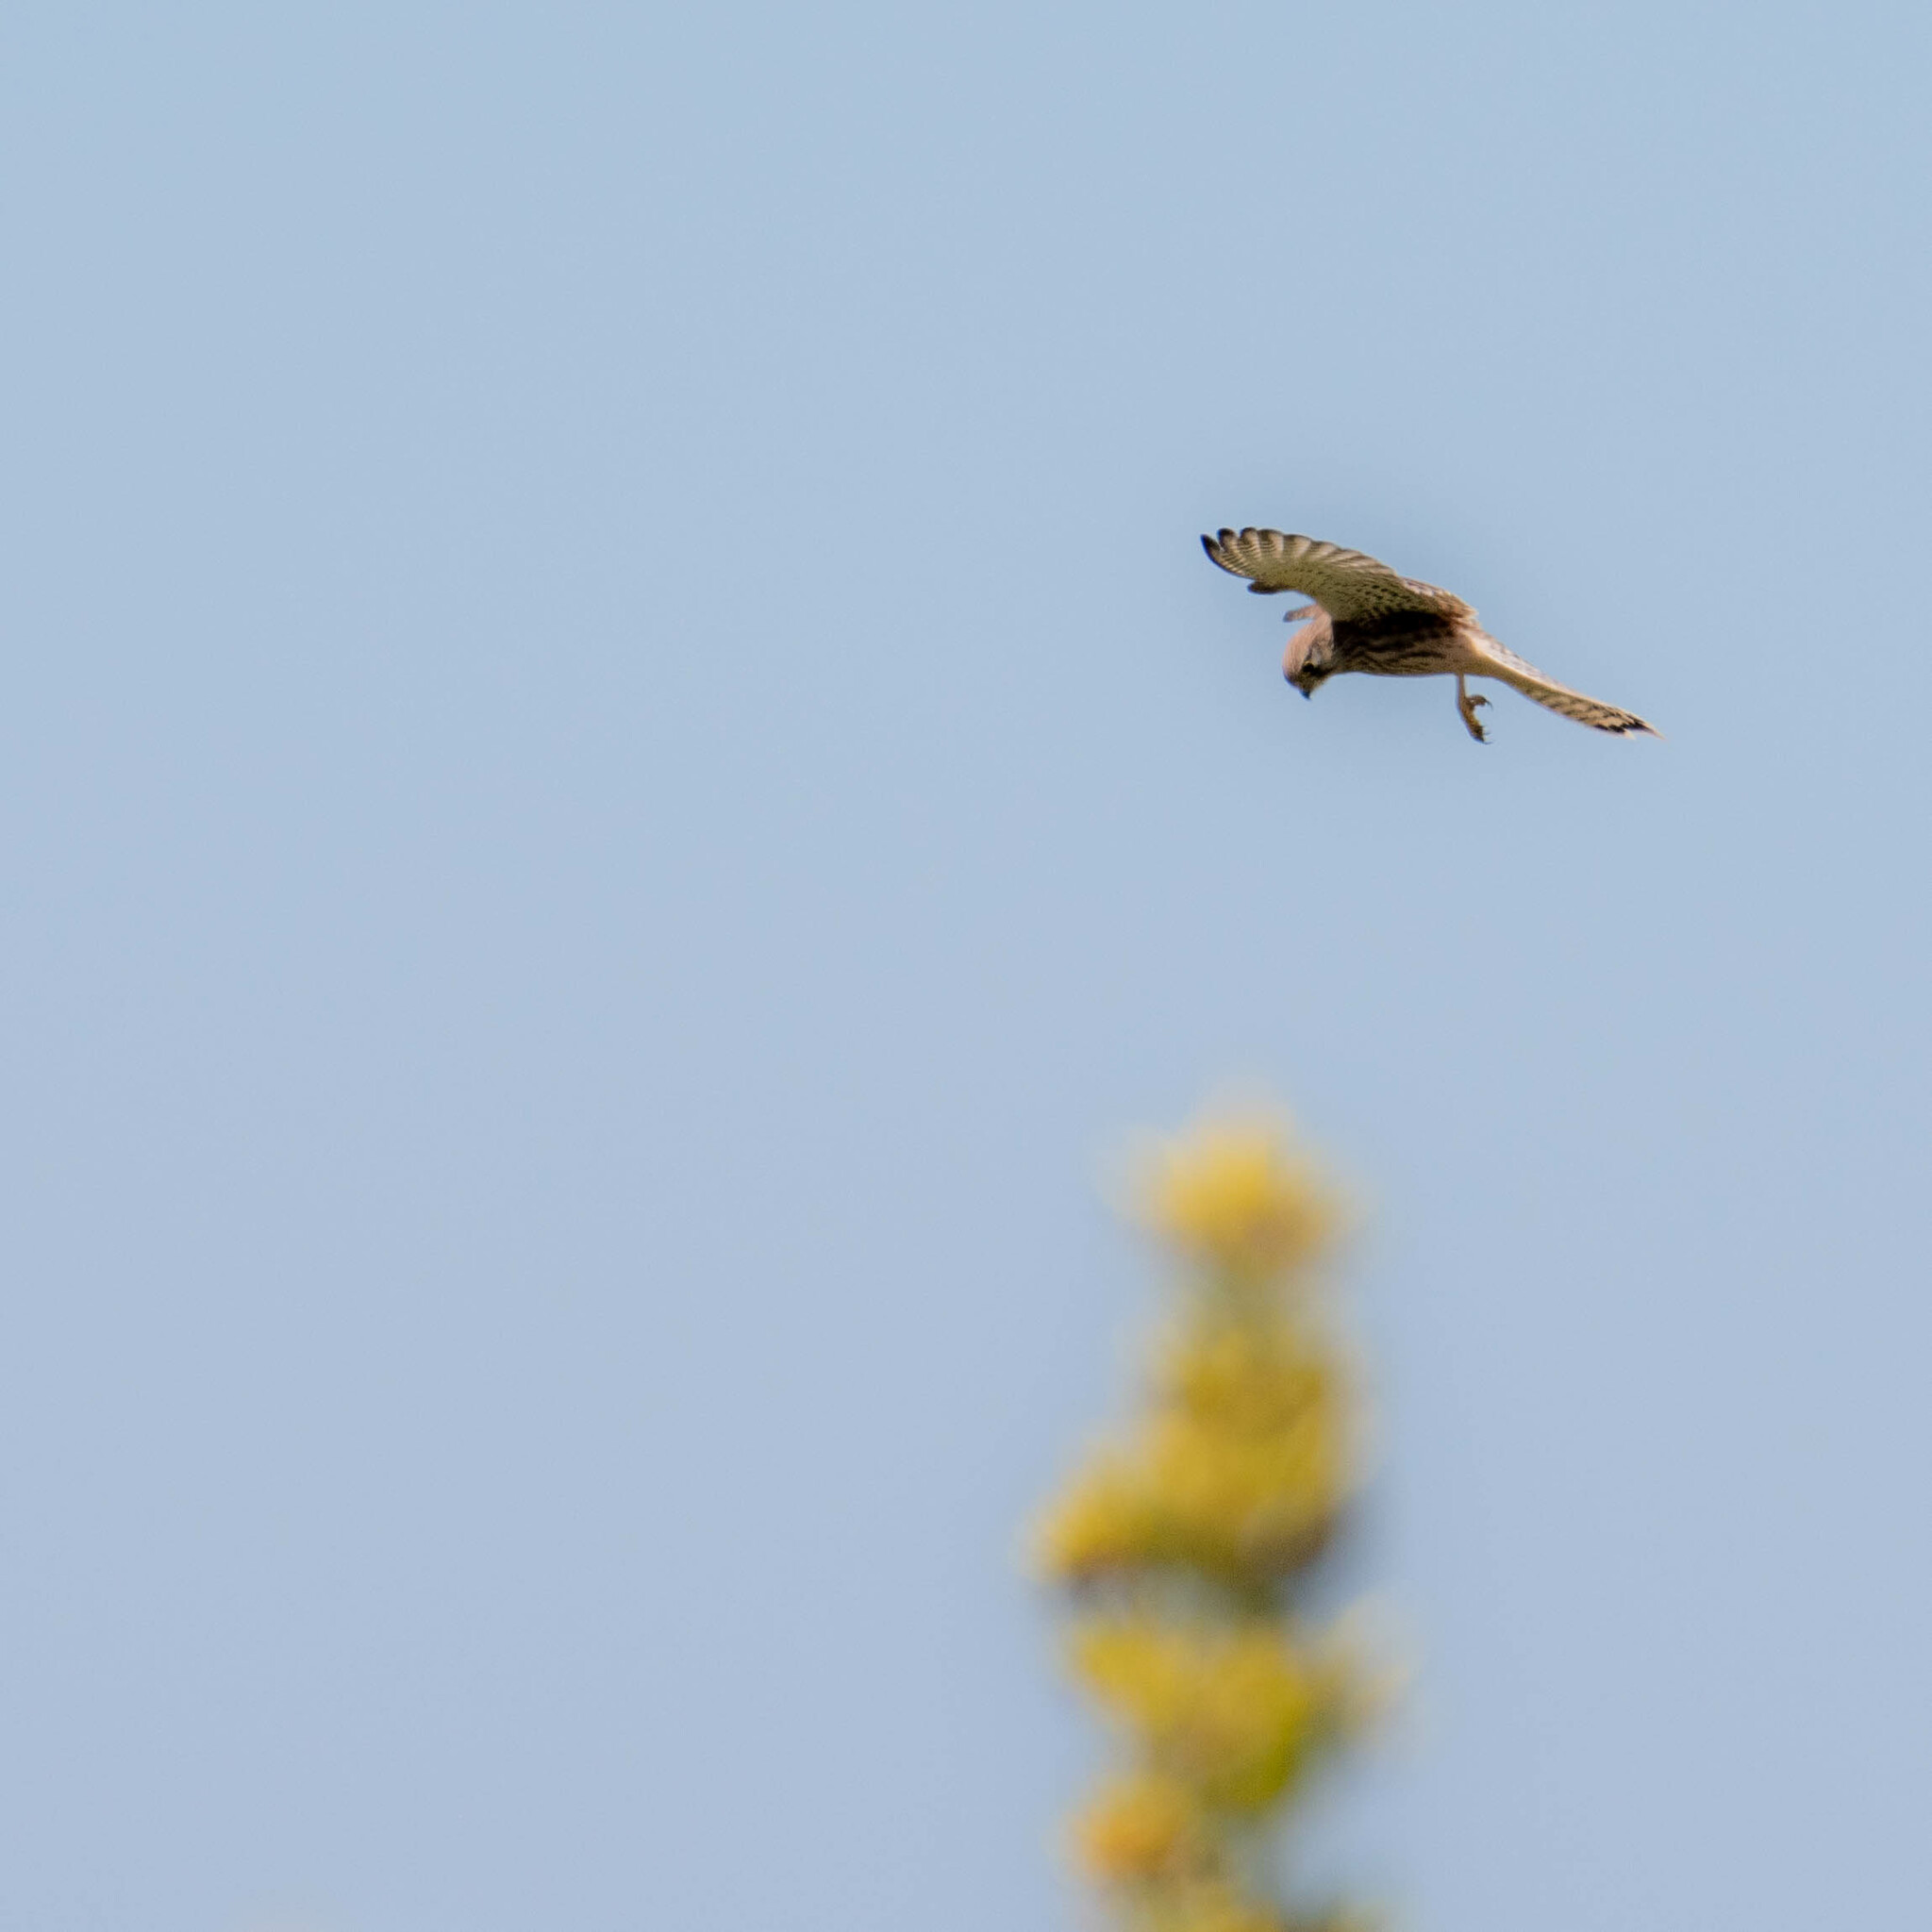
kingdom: Animalia
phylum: Chordata
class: Aves
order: Falconiformes
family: Falconidae
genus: Falco
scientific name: Falco tinnunculus
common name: Common kestrel
